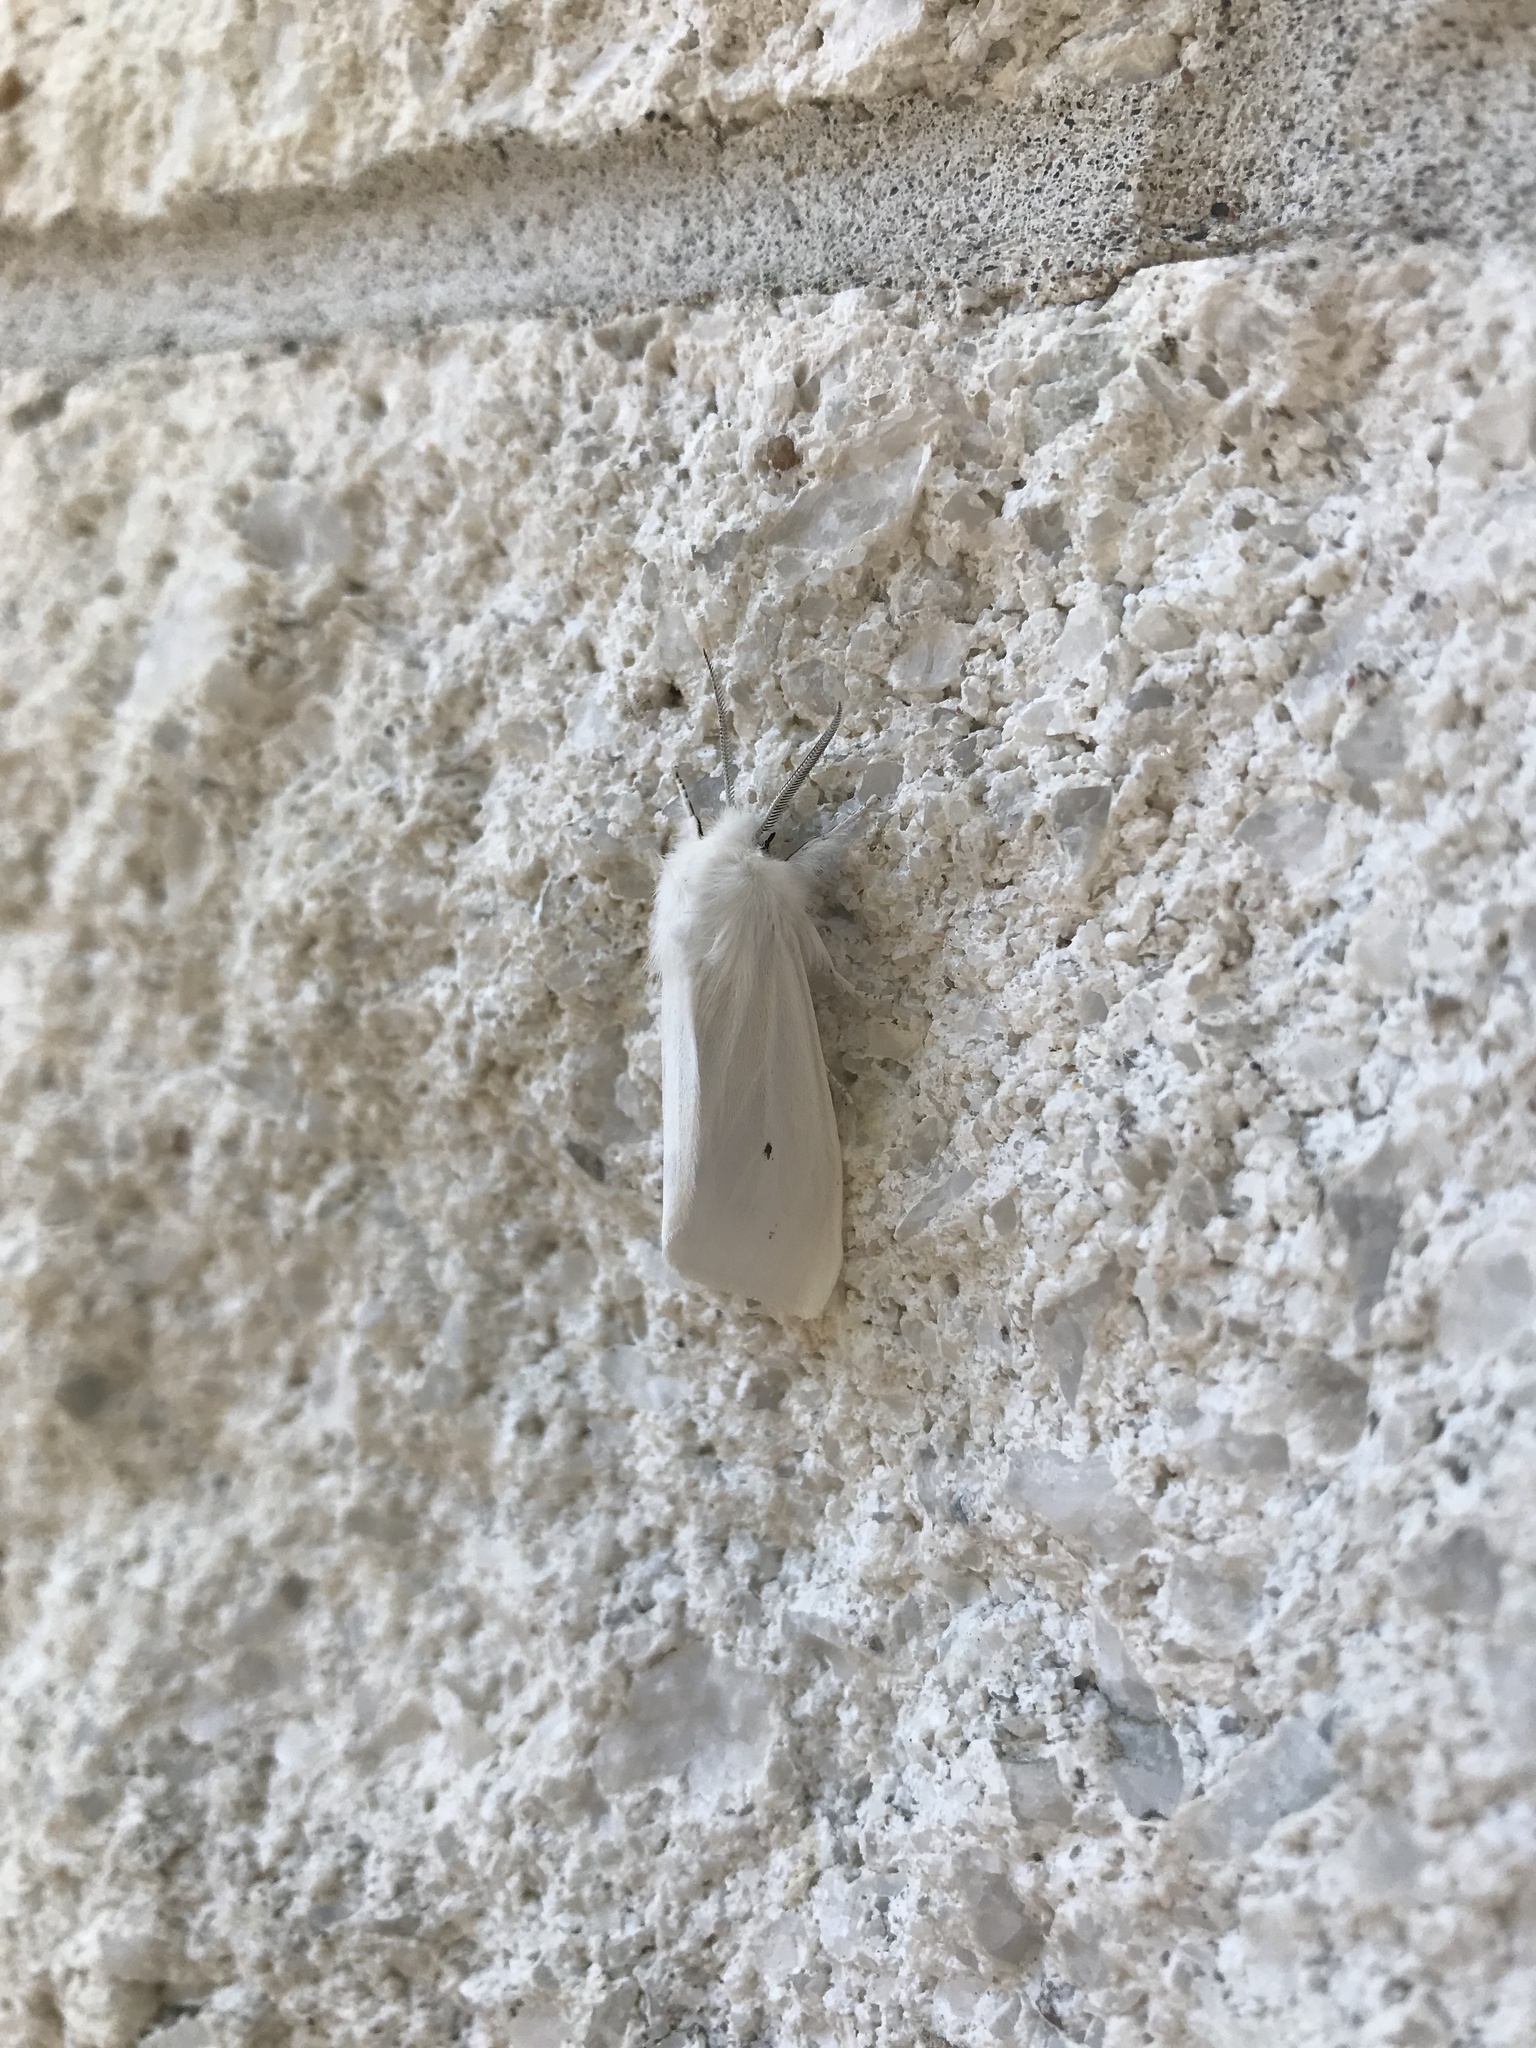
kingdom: Animalia
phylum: Arthropoda
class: Insecta
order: Lepidoptera
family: Erebidae
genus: Spilosoma
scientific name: Spilosoma virginica
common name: Virginia tiger moth
